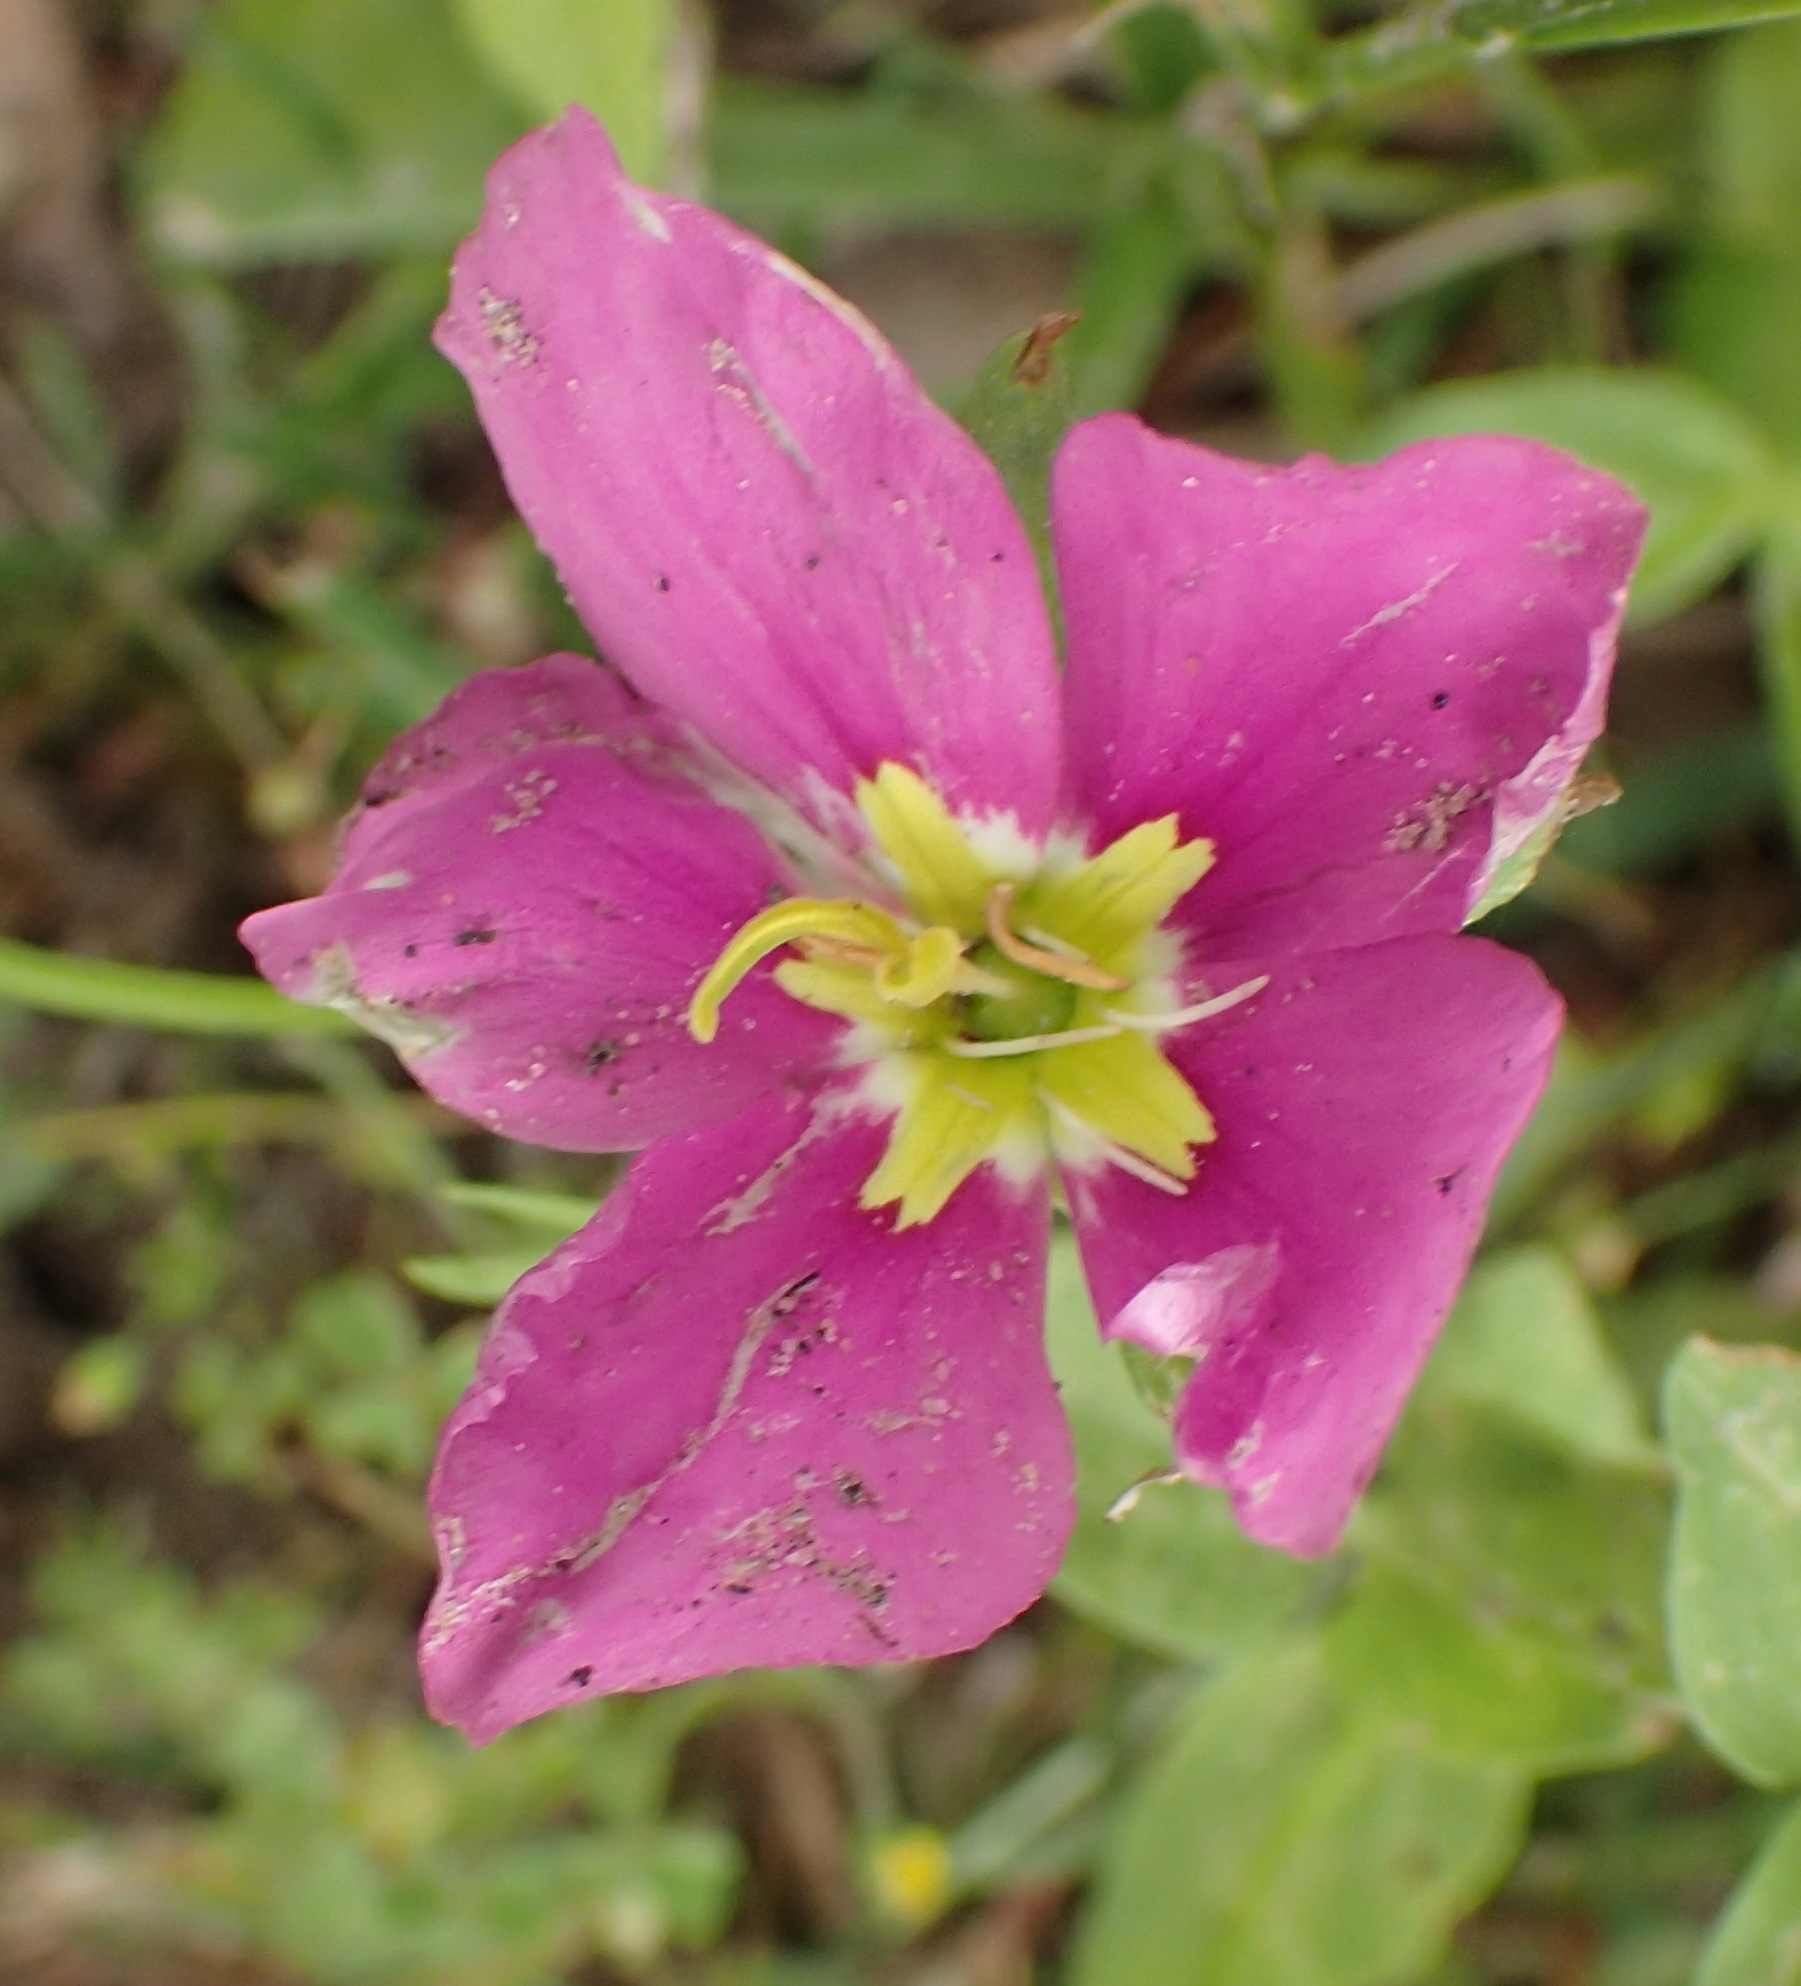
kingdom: Plantae
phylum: Tracheophyta
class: Magnoliopsida
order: Gentianales
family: Gentianaceae
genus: Sabatia
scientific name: Sabatia campestris
